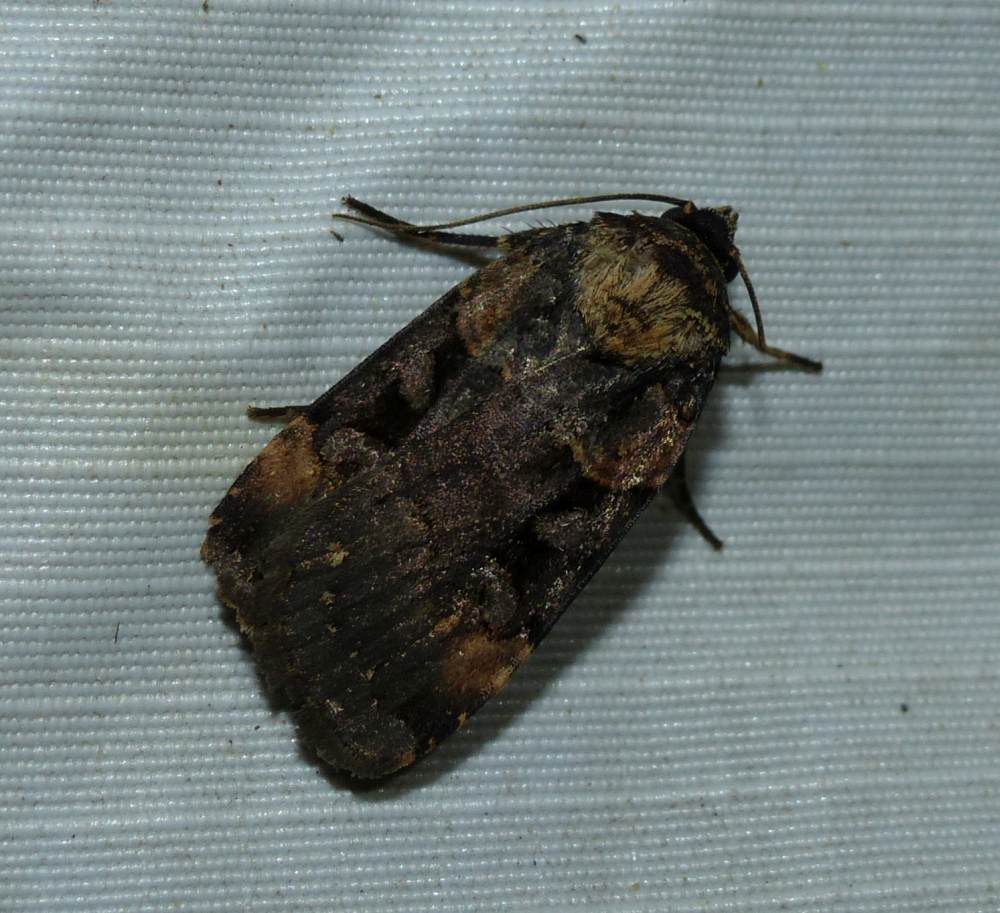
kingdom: Animalia
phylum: Arthropoda
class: Insecta
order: Lepidoptera
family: Noctuidae
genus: Pseudohermonassa
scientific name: Pseudohermonassa bicarnea
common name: Pink spotted dart
